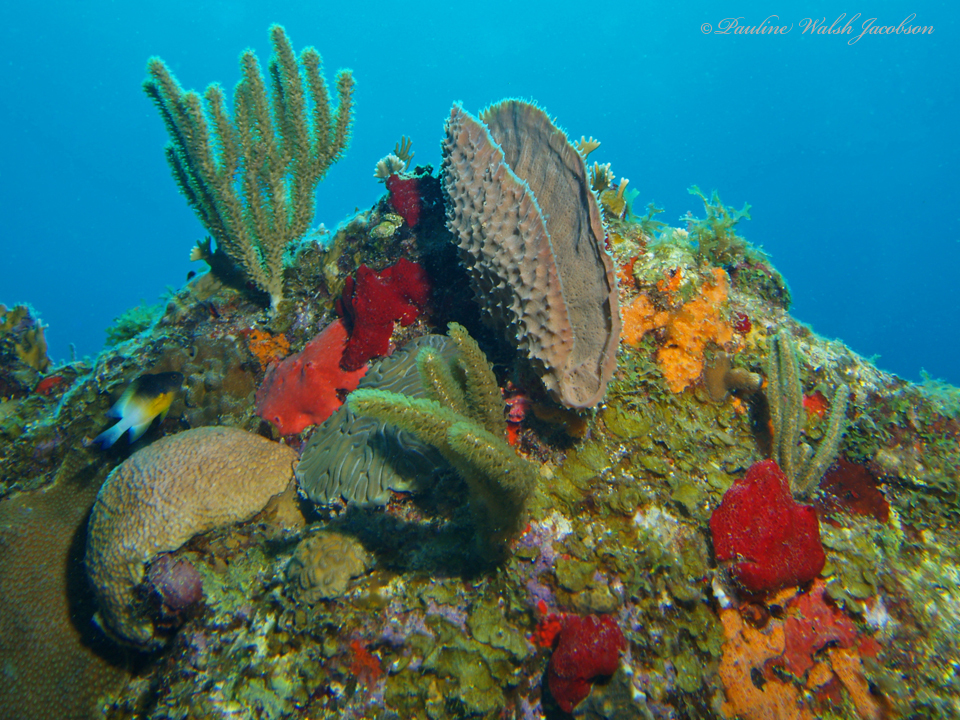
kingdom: Animalia
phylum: Chordata
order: Perciformes
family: Pomacentridae
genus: Stegastes
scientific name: Stegastes partitus
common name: Bicolor damselfish
